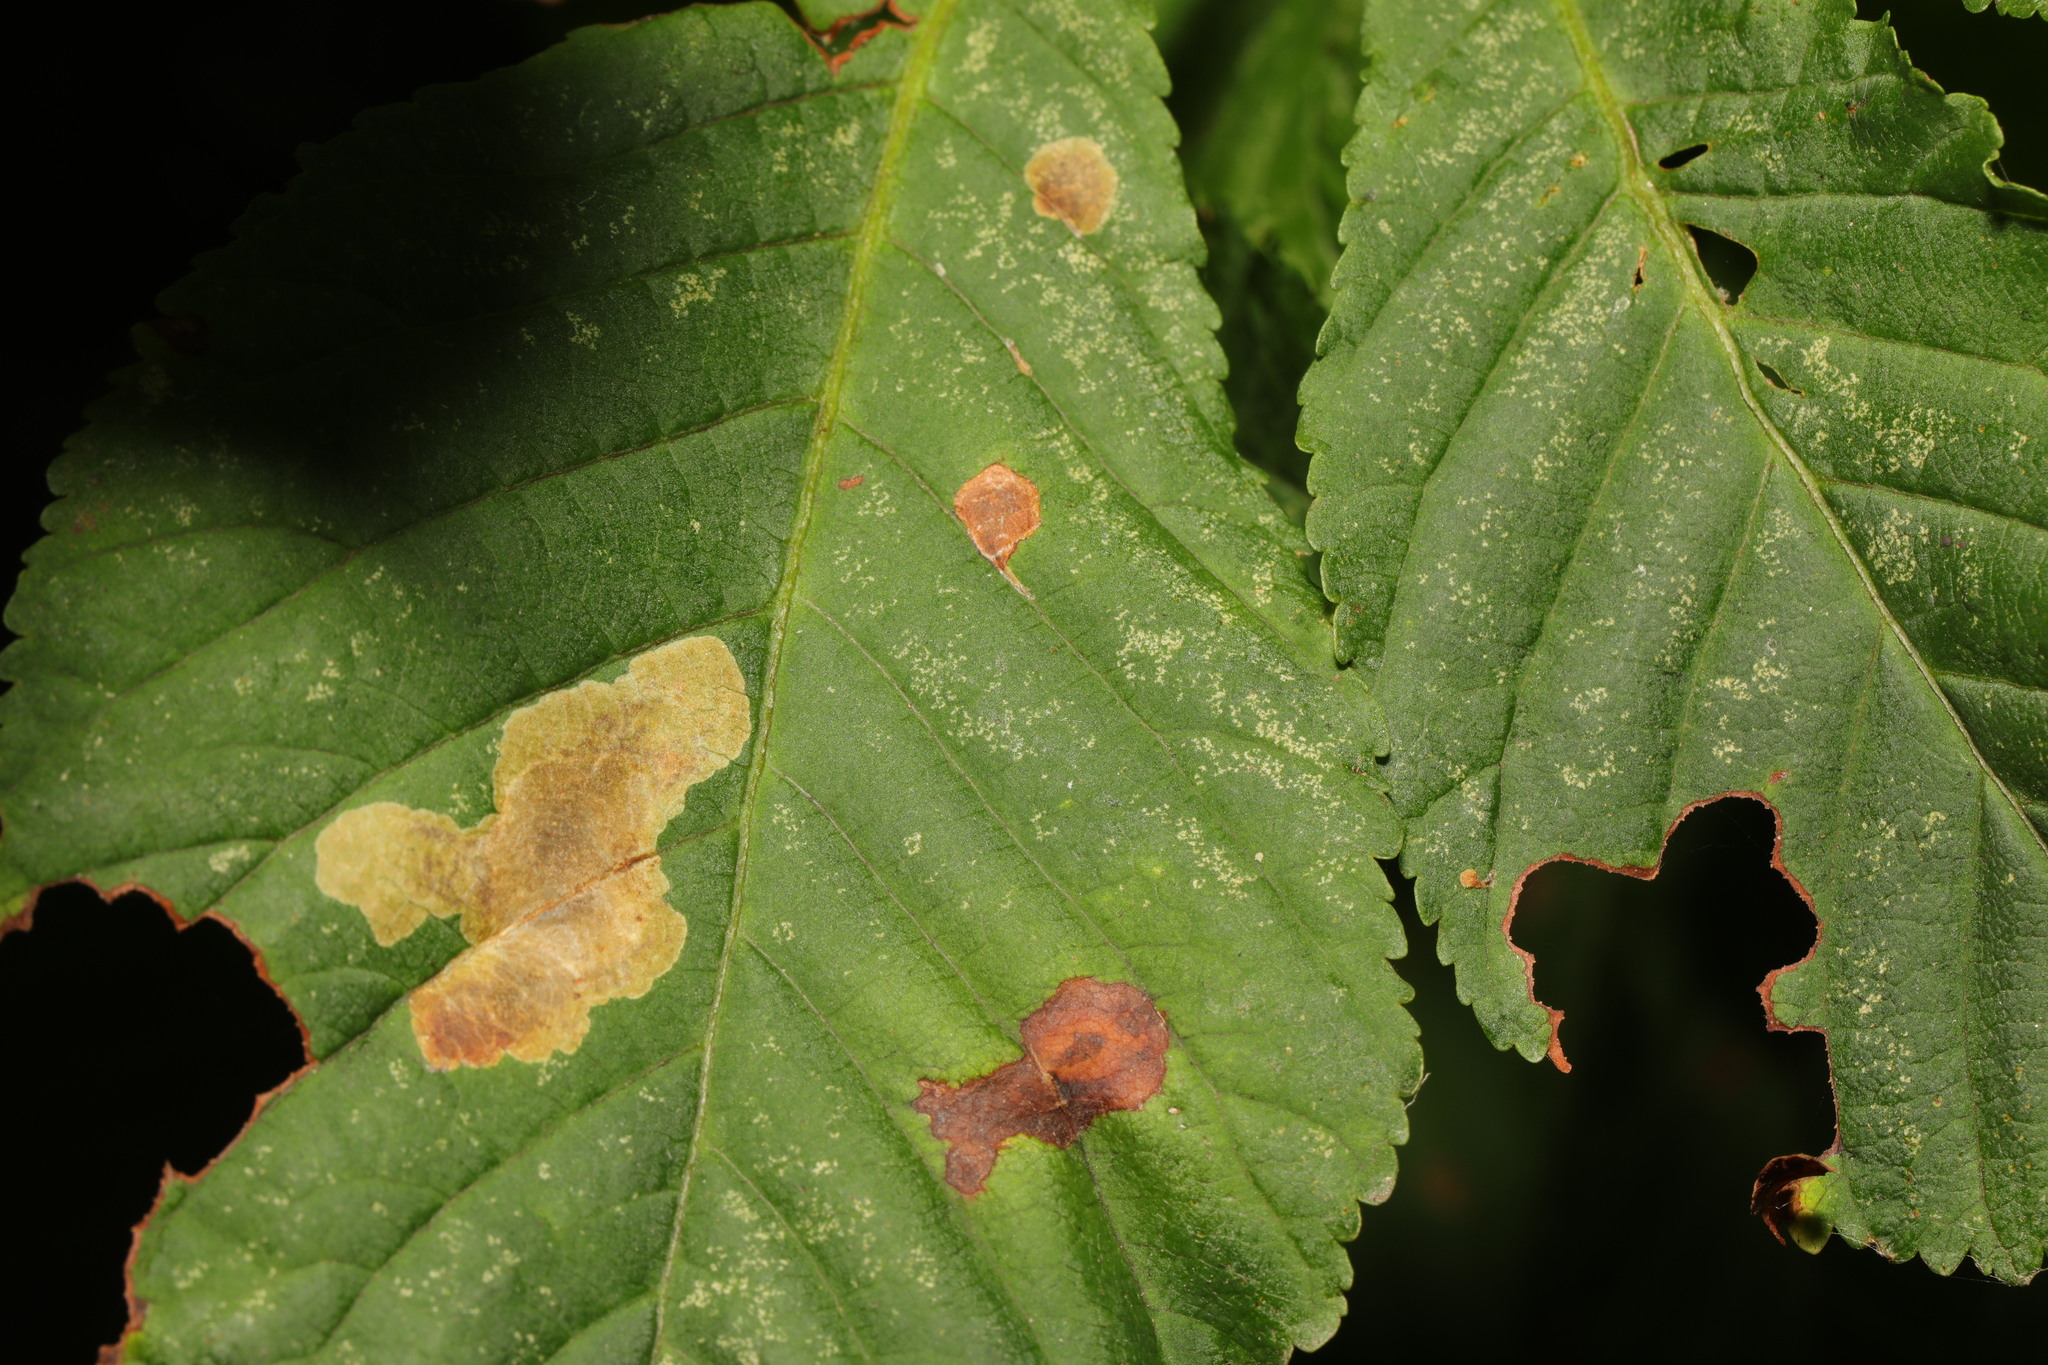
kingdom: Animalia
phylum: Arthropoda
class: Insecta
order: Lepidoptera
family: Gracillariidae
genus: Cameraria
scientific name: Cameraria ohridella
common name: Horse-chestnut leaf-miner
